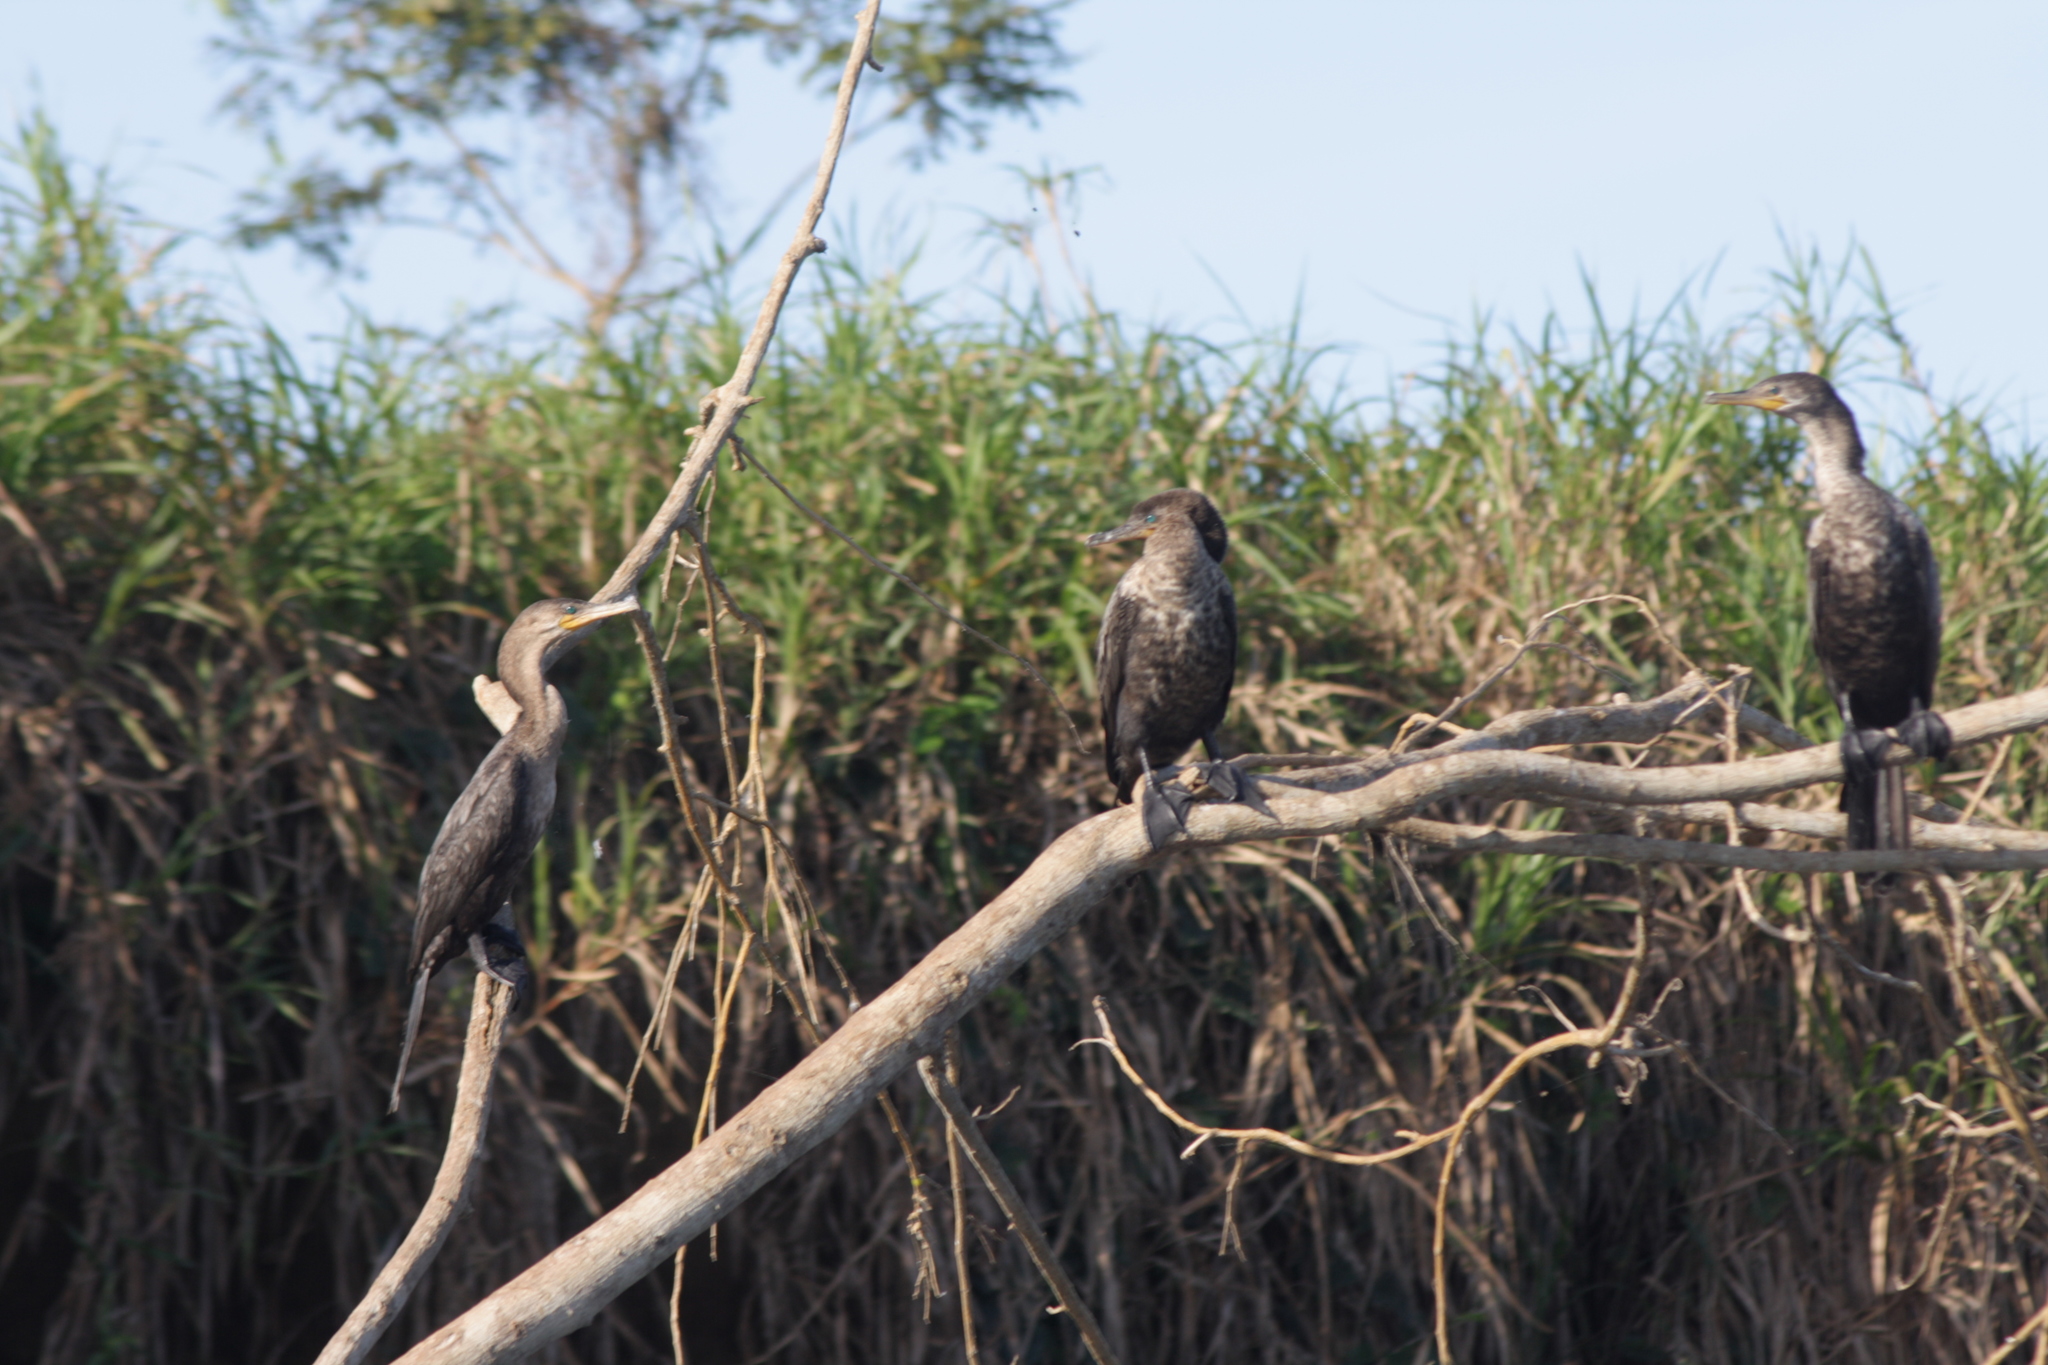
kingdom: Animalia
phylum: Chordata
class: Aves
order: Suliformes
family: Phalacrocoracidae
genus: Phalacrocorax
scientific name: Phalacrocorax brasilianus
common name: Neotropic cormorant
